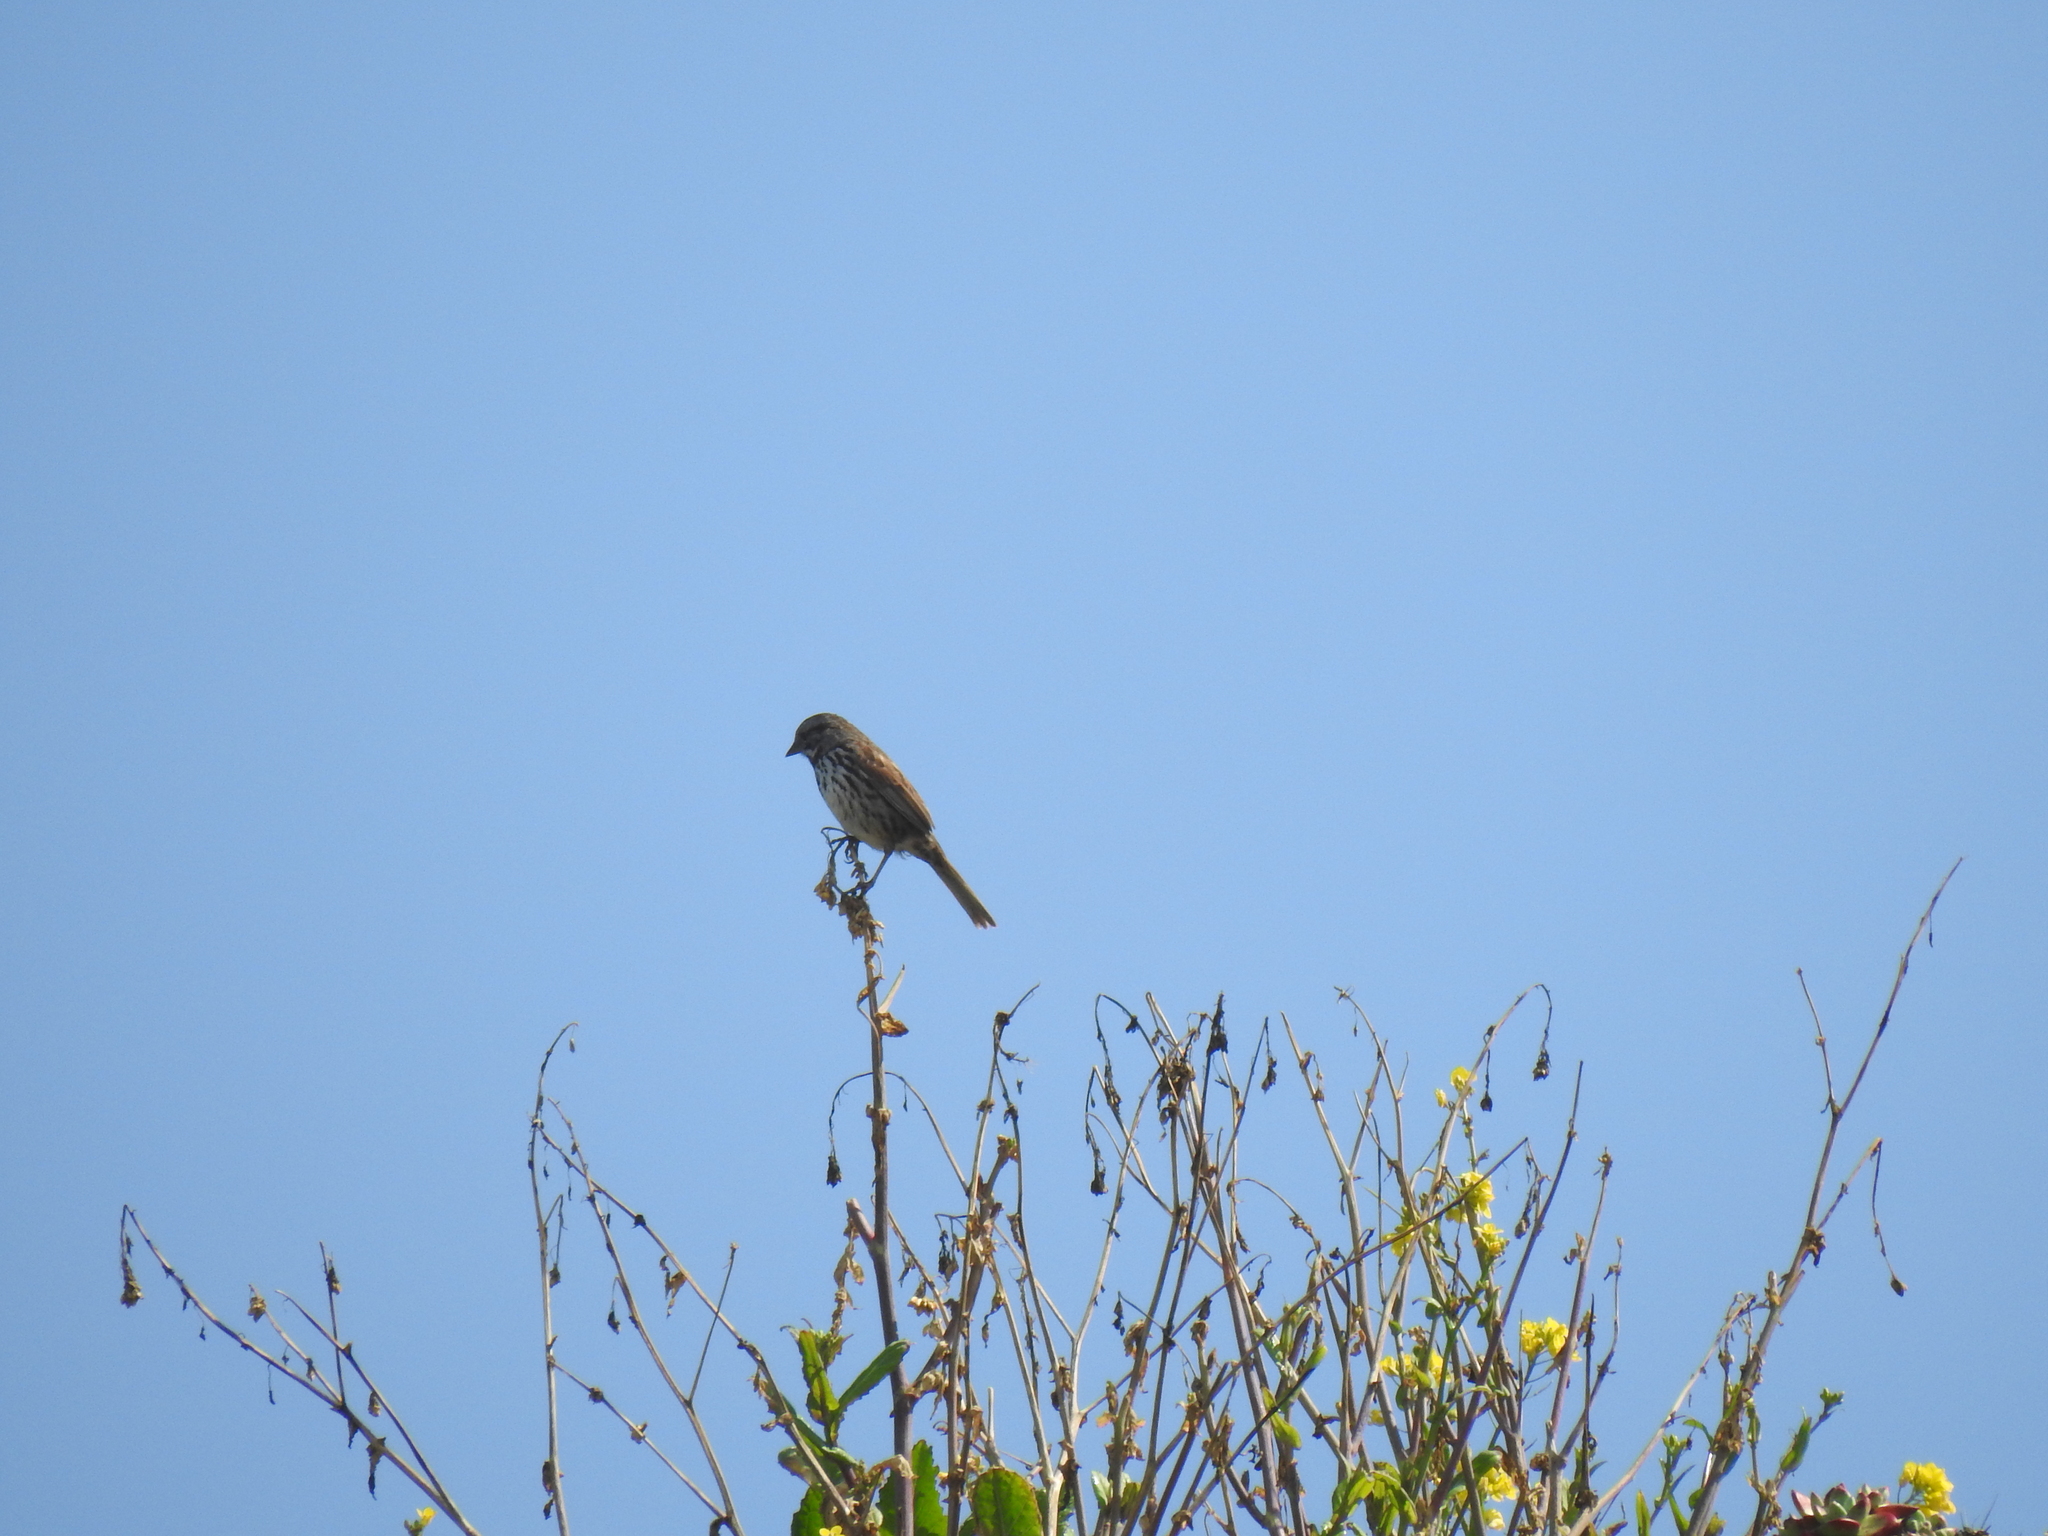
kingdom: Animalia
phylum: Chordata
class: Aves
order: Passeriformes
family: Passerellidae
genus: Melospiza
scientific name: Melospiza melodia
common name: Song sparrow
